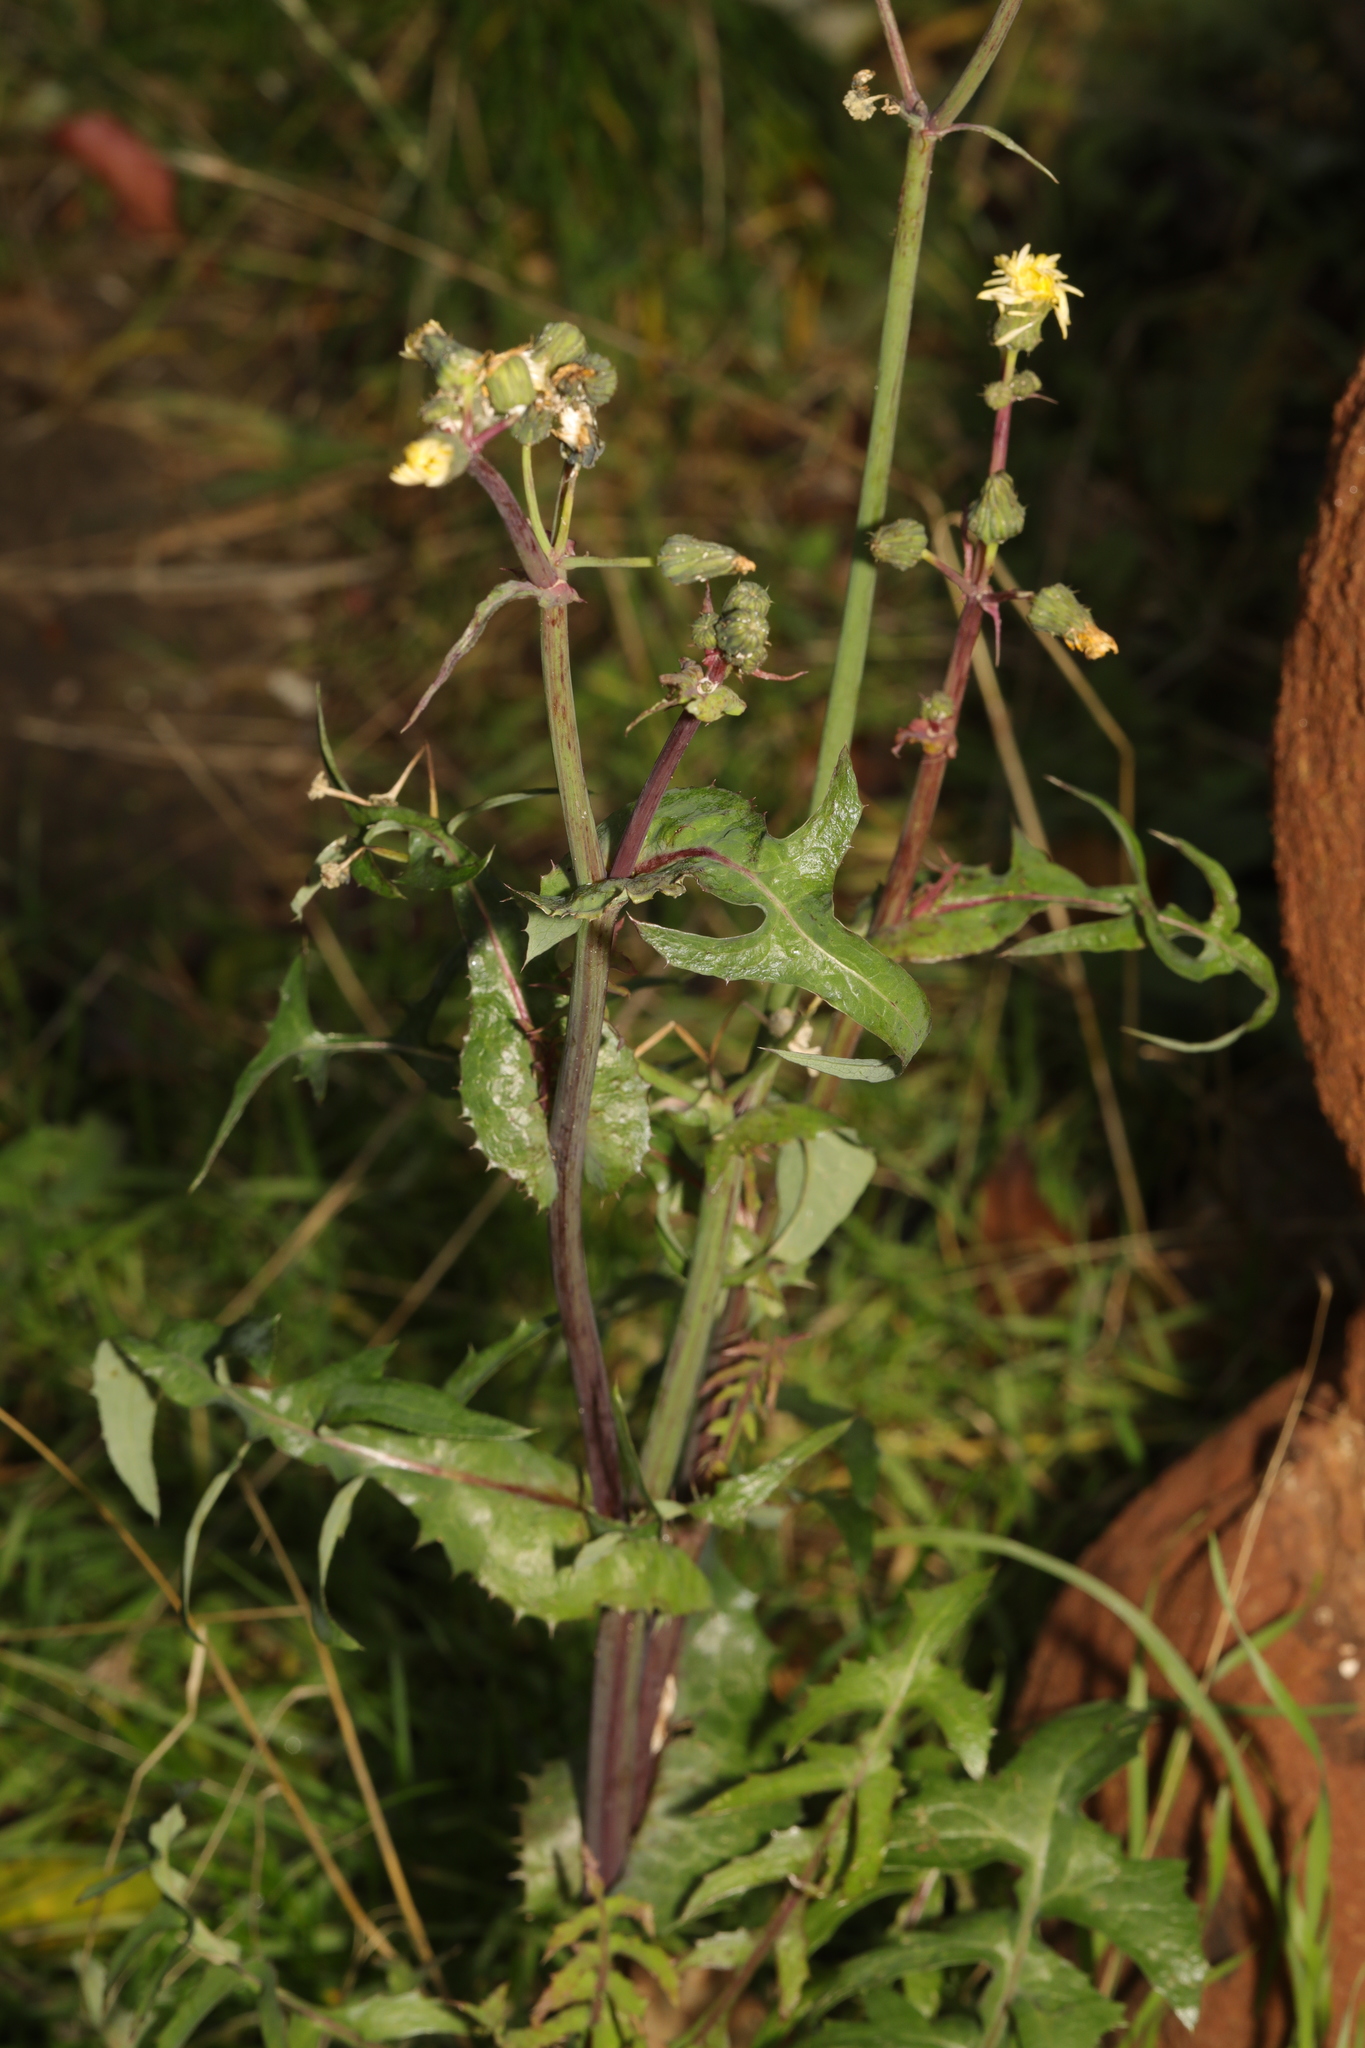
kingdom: Plantae
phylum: Tracheophyta
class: Magnoliopsida
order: Asterales
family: Asteraceae
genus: Sonchus
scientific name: Sonchus oleraceus
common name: Common sowthistle
